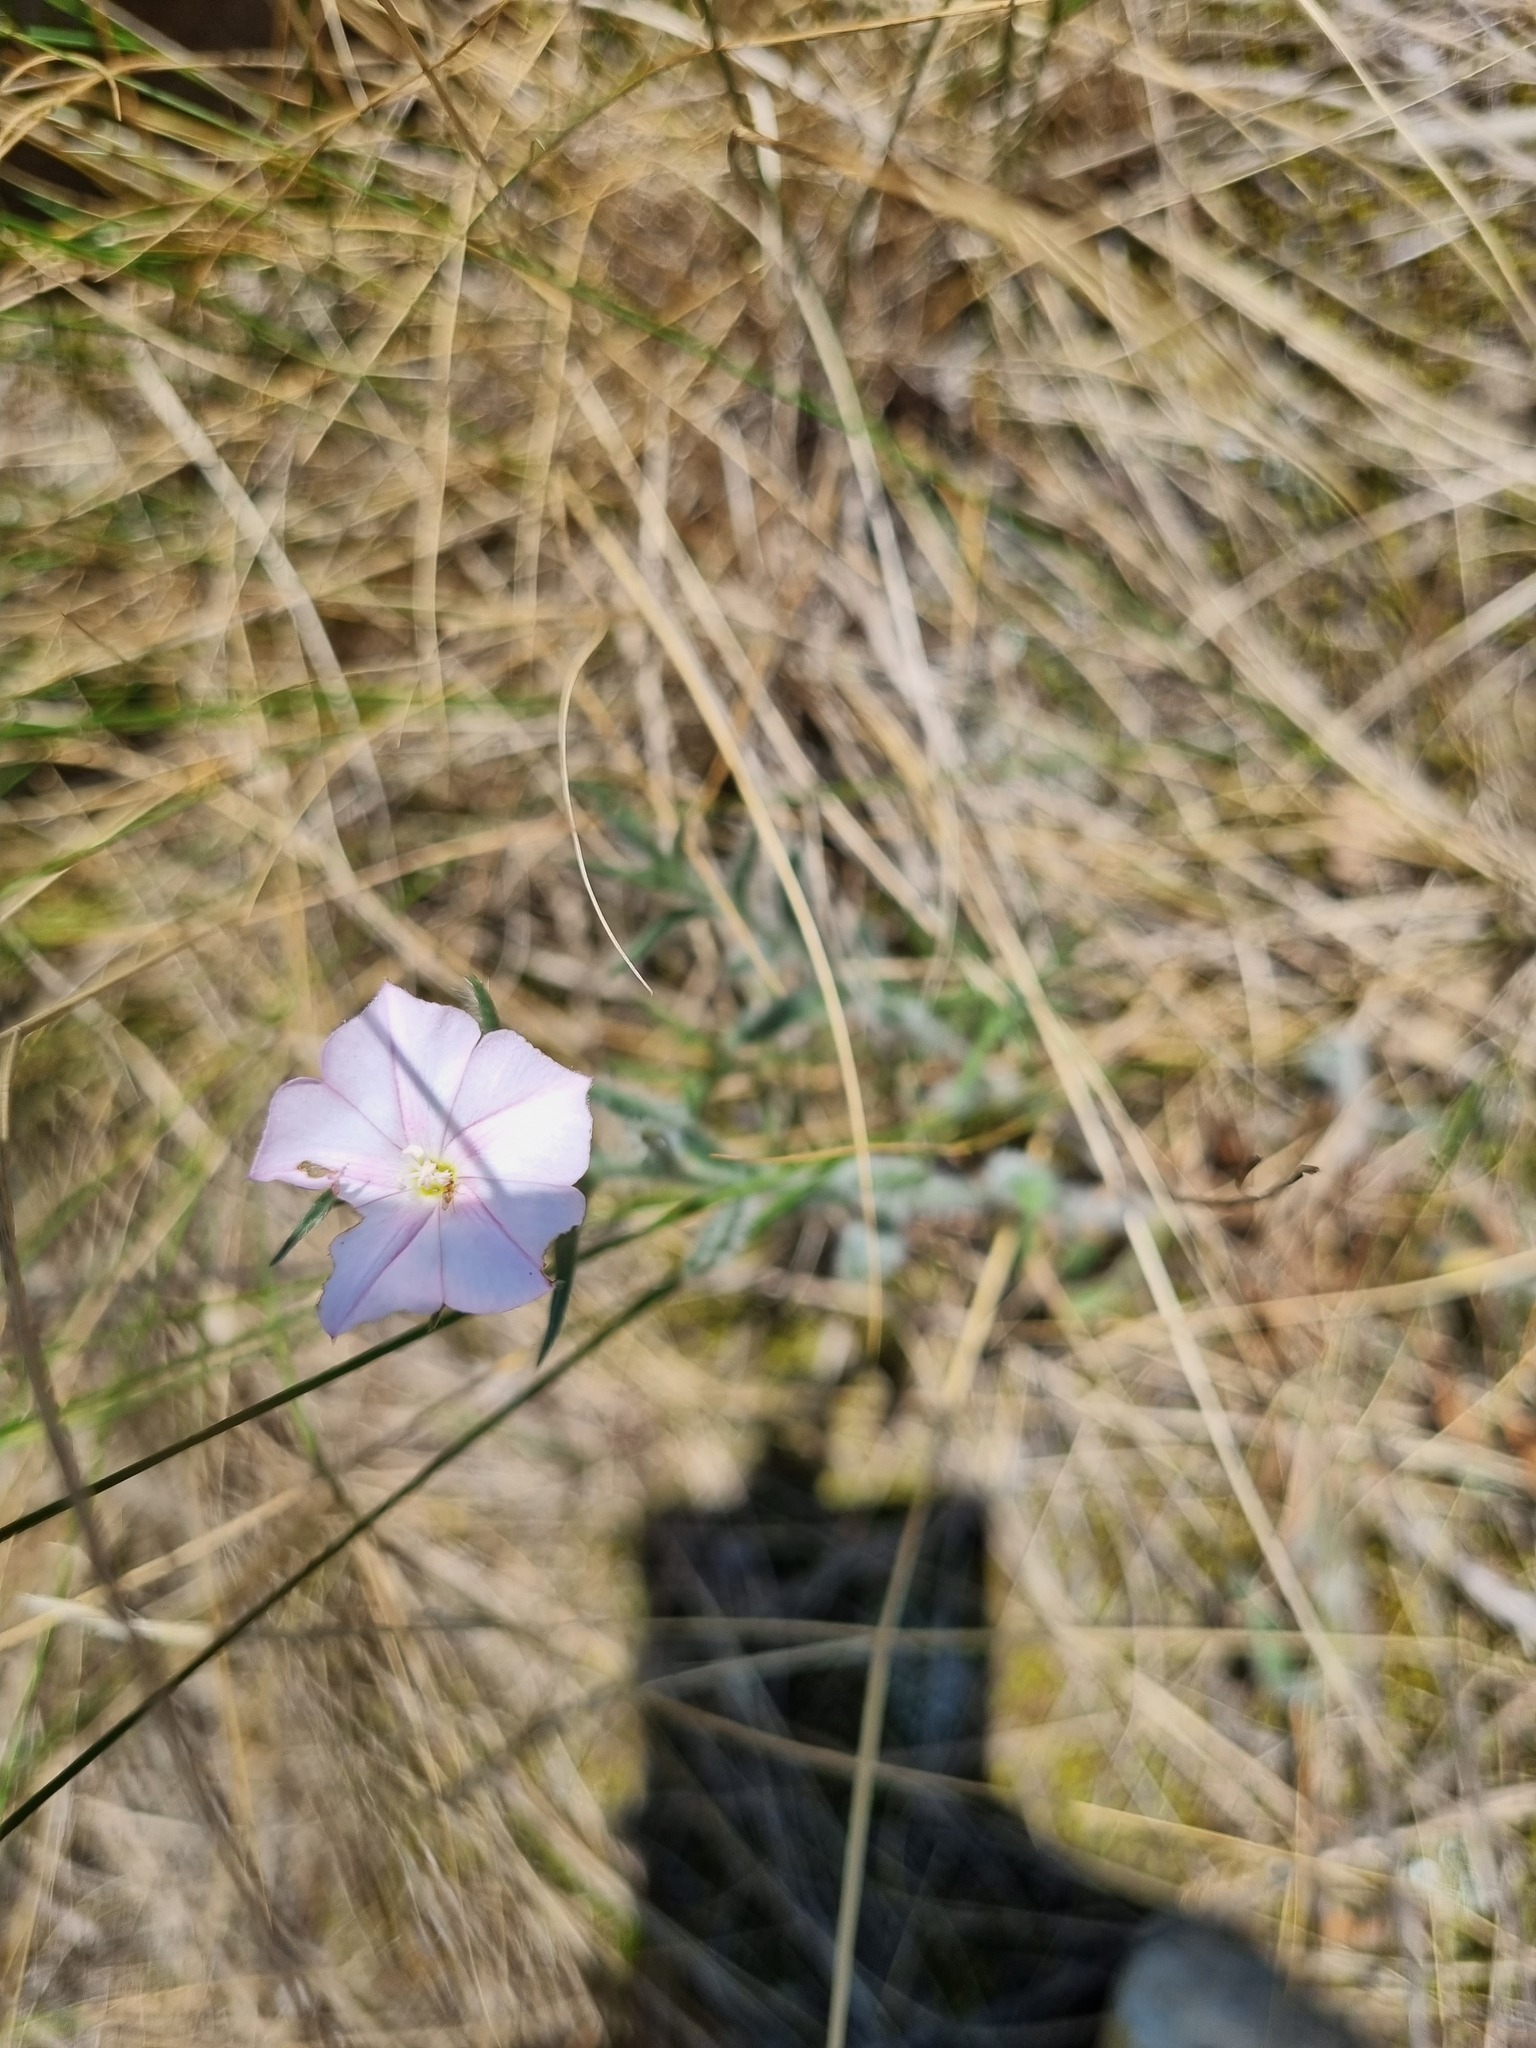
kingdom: Plantae
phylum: Tracheophyta
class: Magnoliopsida
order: Solanales
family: Convolvulaceae
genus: Convolvulus
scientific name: Convolvulus cantabrica
